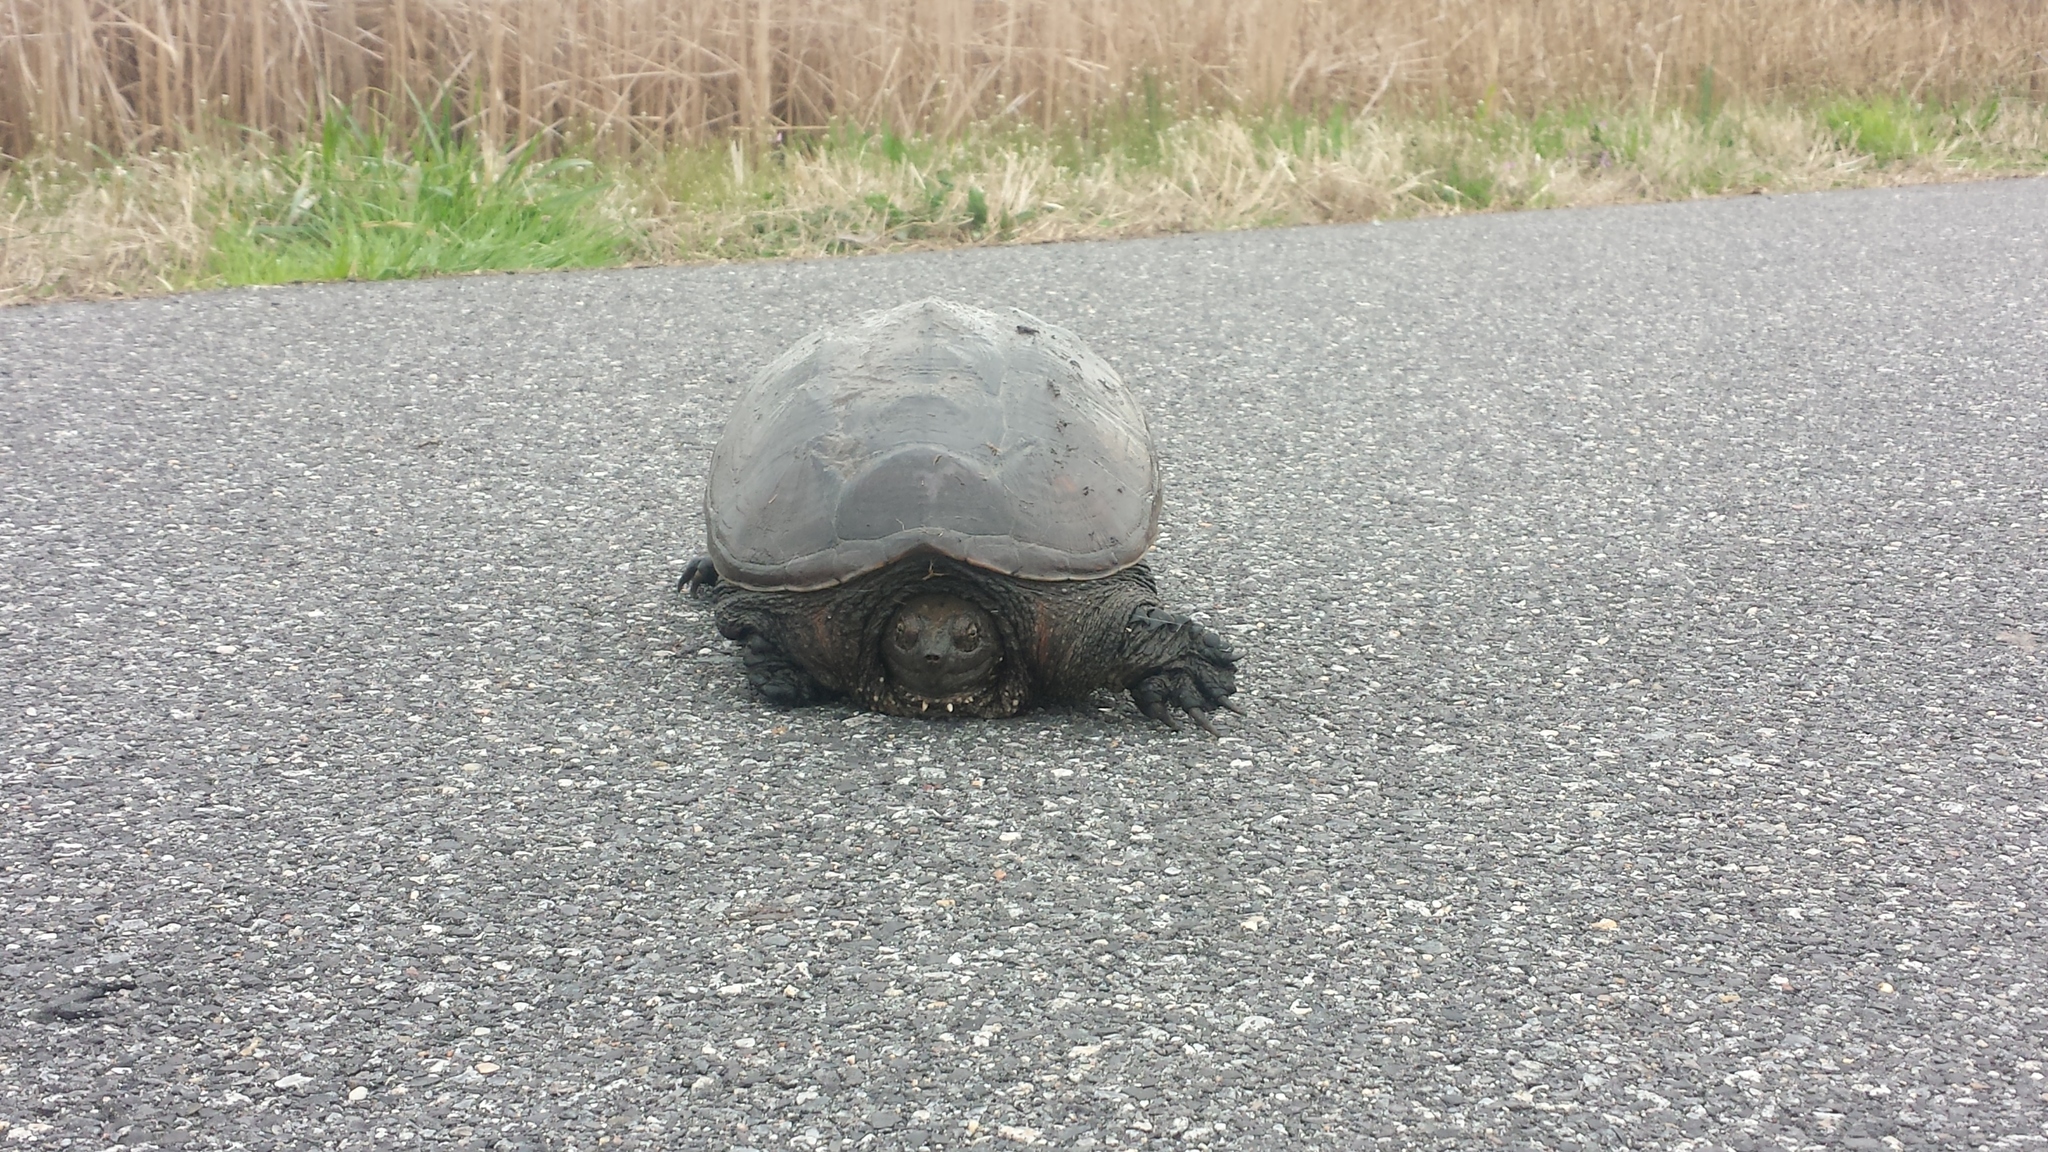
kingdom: Animalia
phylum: Chordata
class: Testudines
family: Chelydridae
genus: Chelydra
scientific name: Chelydra serpentina
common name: Common snapping turtle
